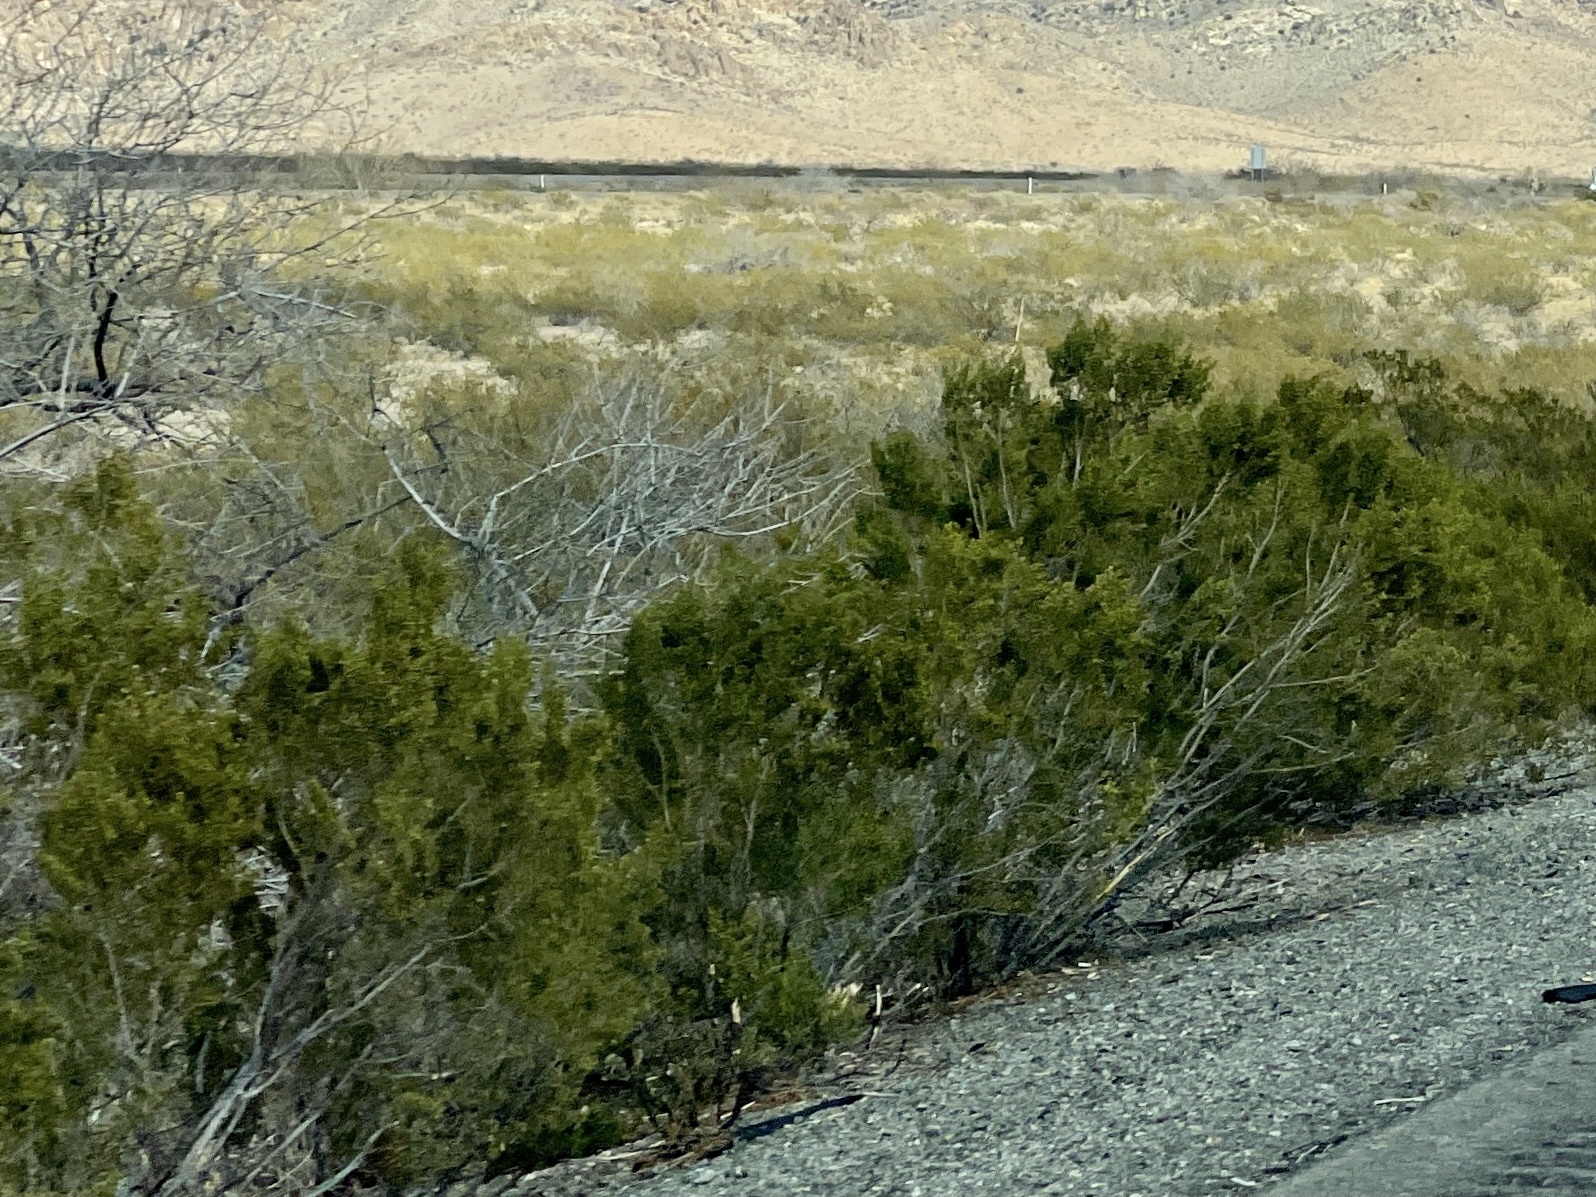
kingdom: Plantae
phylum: Tracheophyta
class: Magnoliopsida
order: Zygophyllales
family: Zygophyllaceae
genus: Larrea
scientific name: Larrea tridentata
